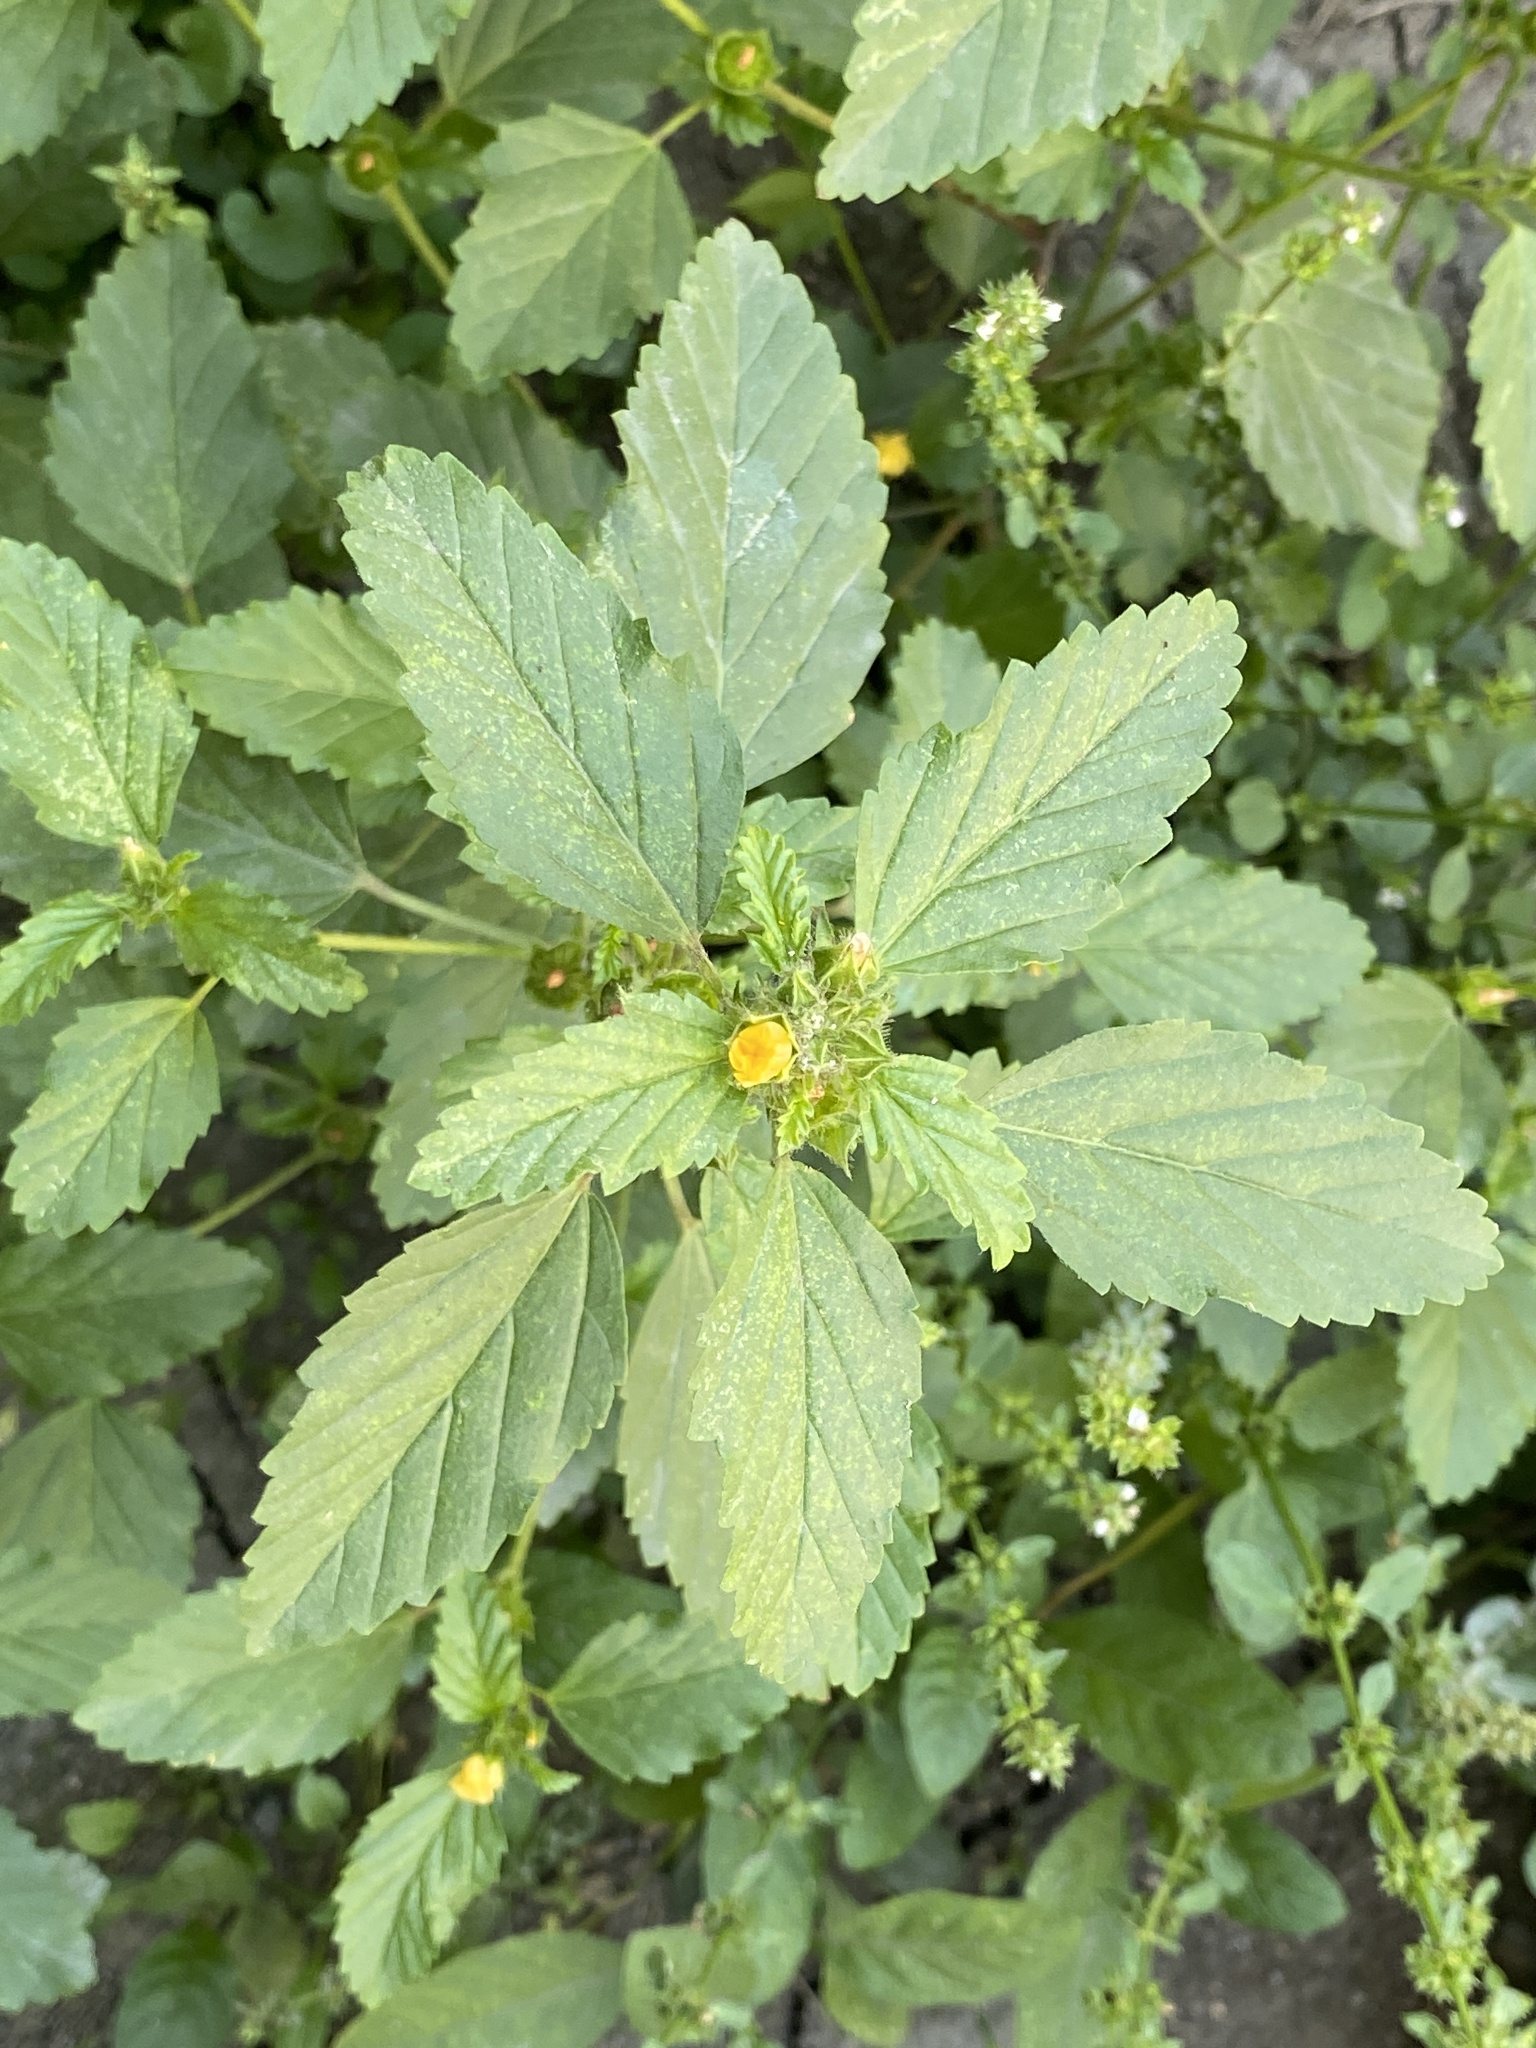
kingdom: Plantae
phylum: Tracheophyta
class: Magnoliopsida
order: Malvales
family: Malvaceae
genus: Malvastrum
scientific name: Malvastrum coromandelianum
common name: Threelobe false mallow
